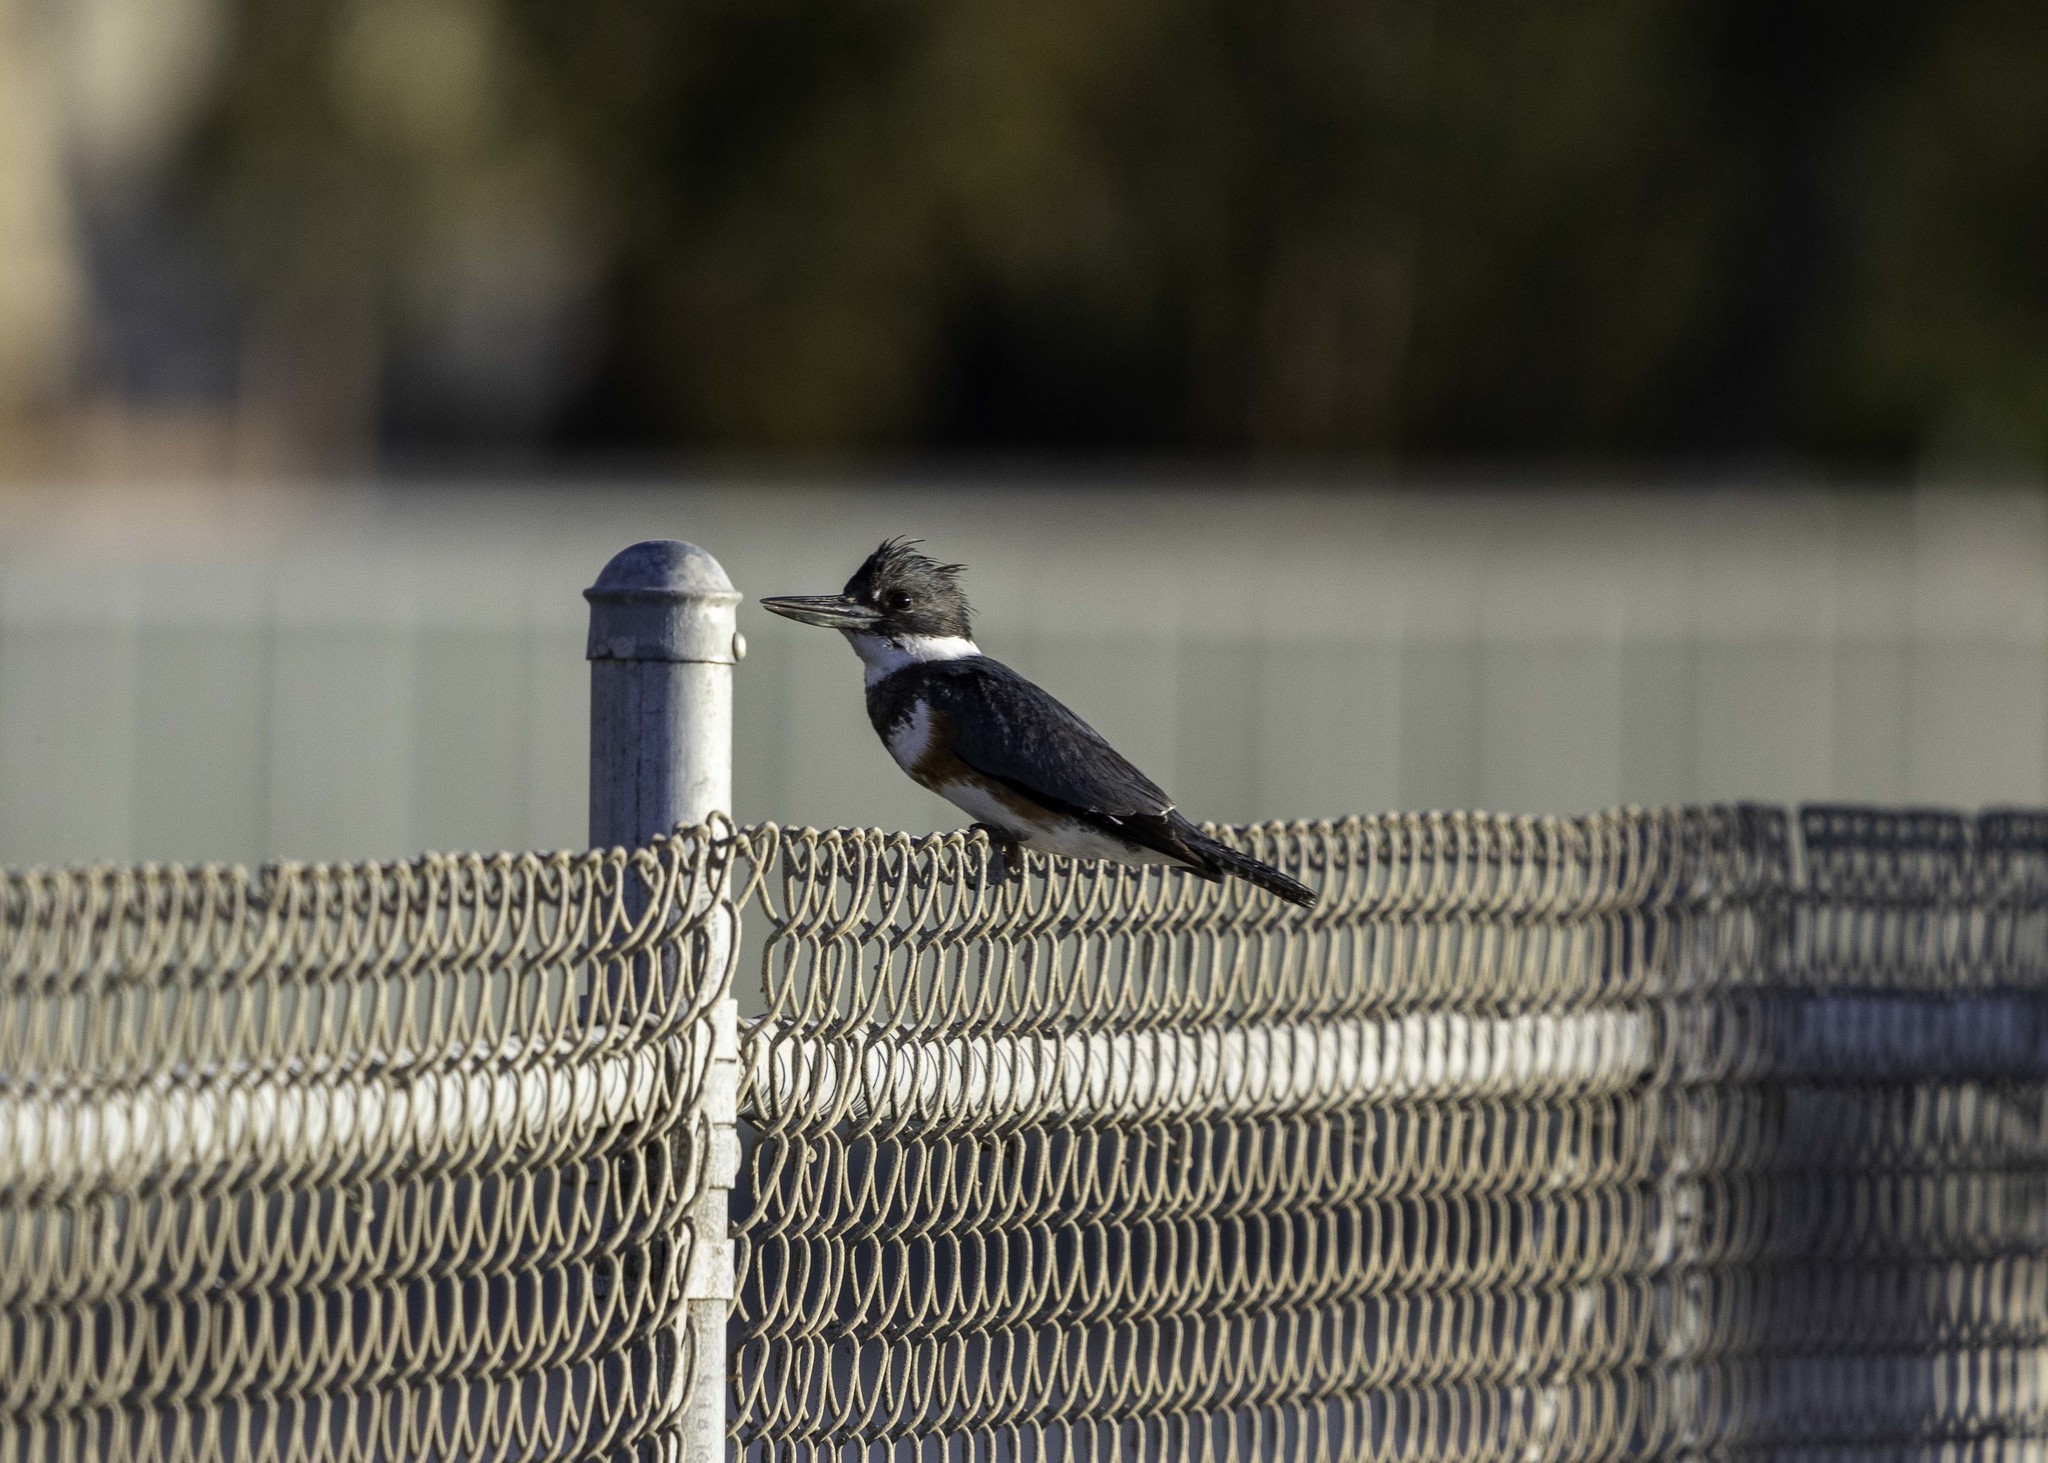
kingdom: Animalia
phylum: Chordata
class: Aves
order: Coraciiformes
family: Alcedinidae
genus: Megaceryle
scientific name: Megaceryle alcyon
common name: Belted kingfisher
